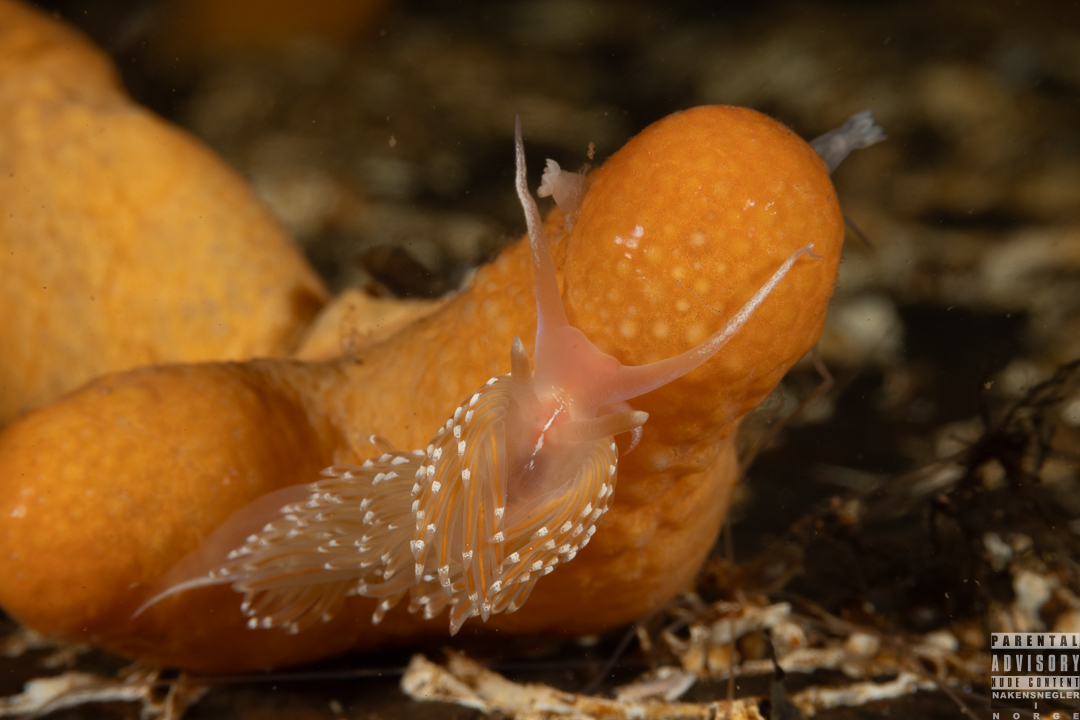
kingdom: Animalia
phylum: Mollusca
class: Gastropoda
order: Nudibranchia
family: Facelinidae
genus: Facelina
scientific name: Facelina bostoniensis
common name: Boston facelina
